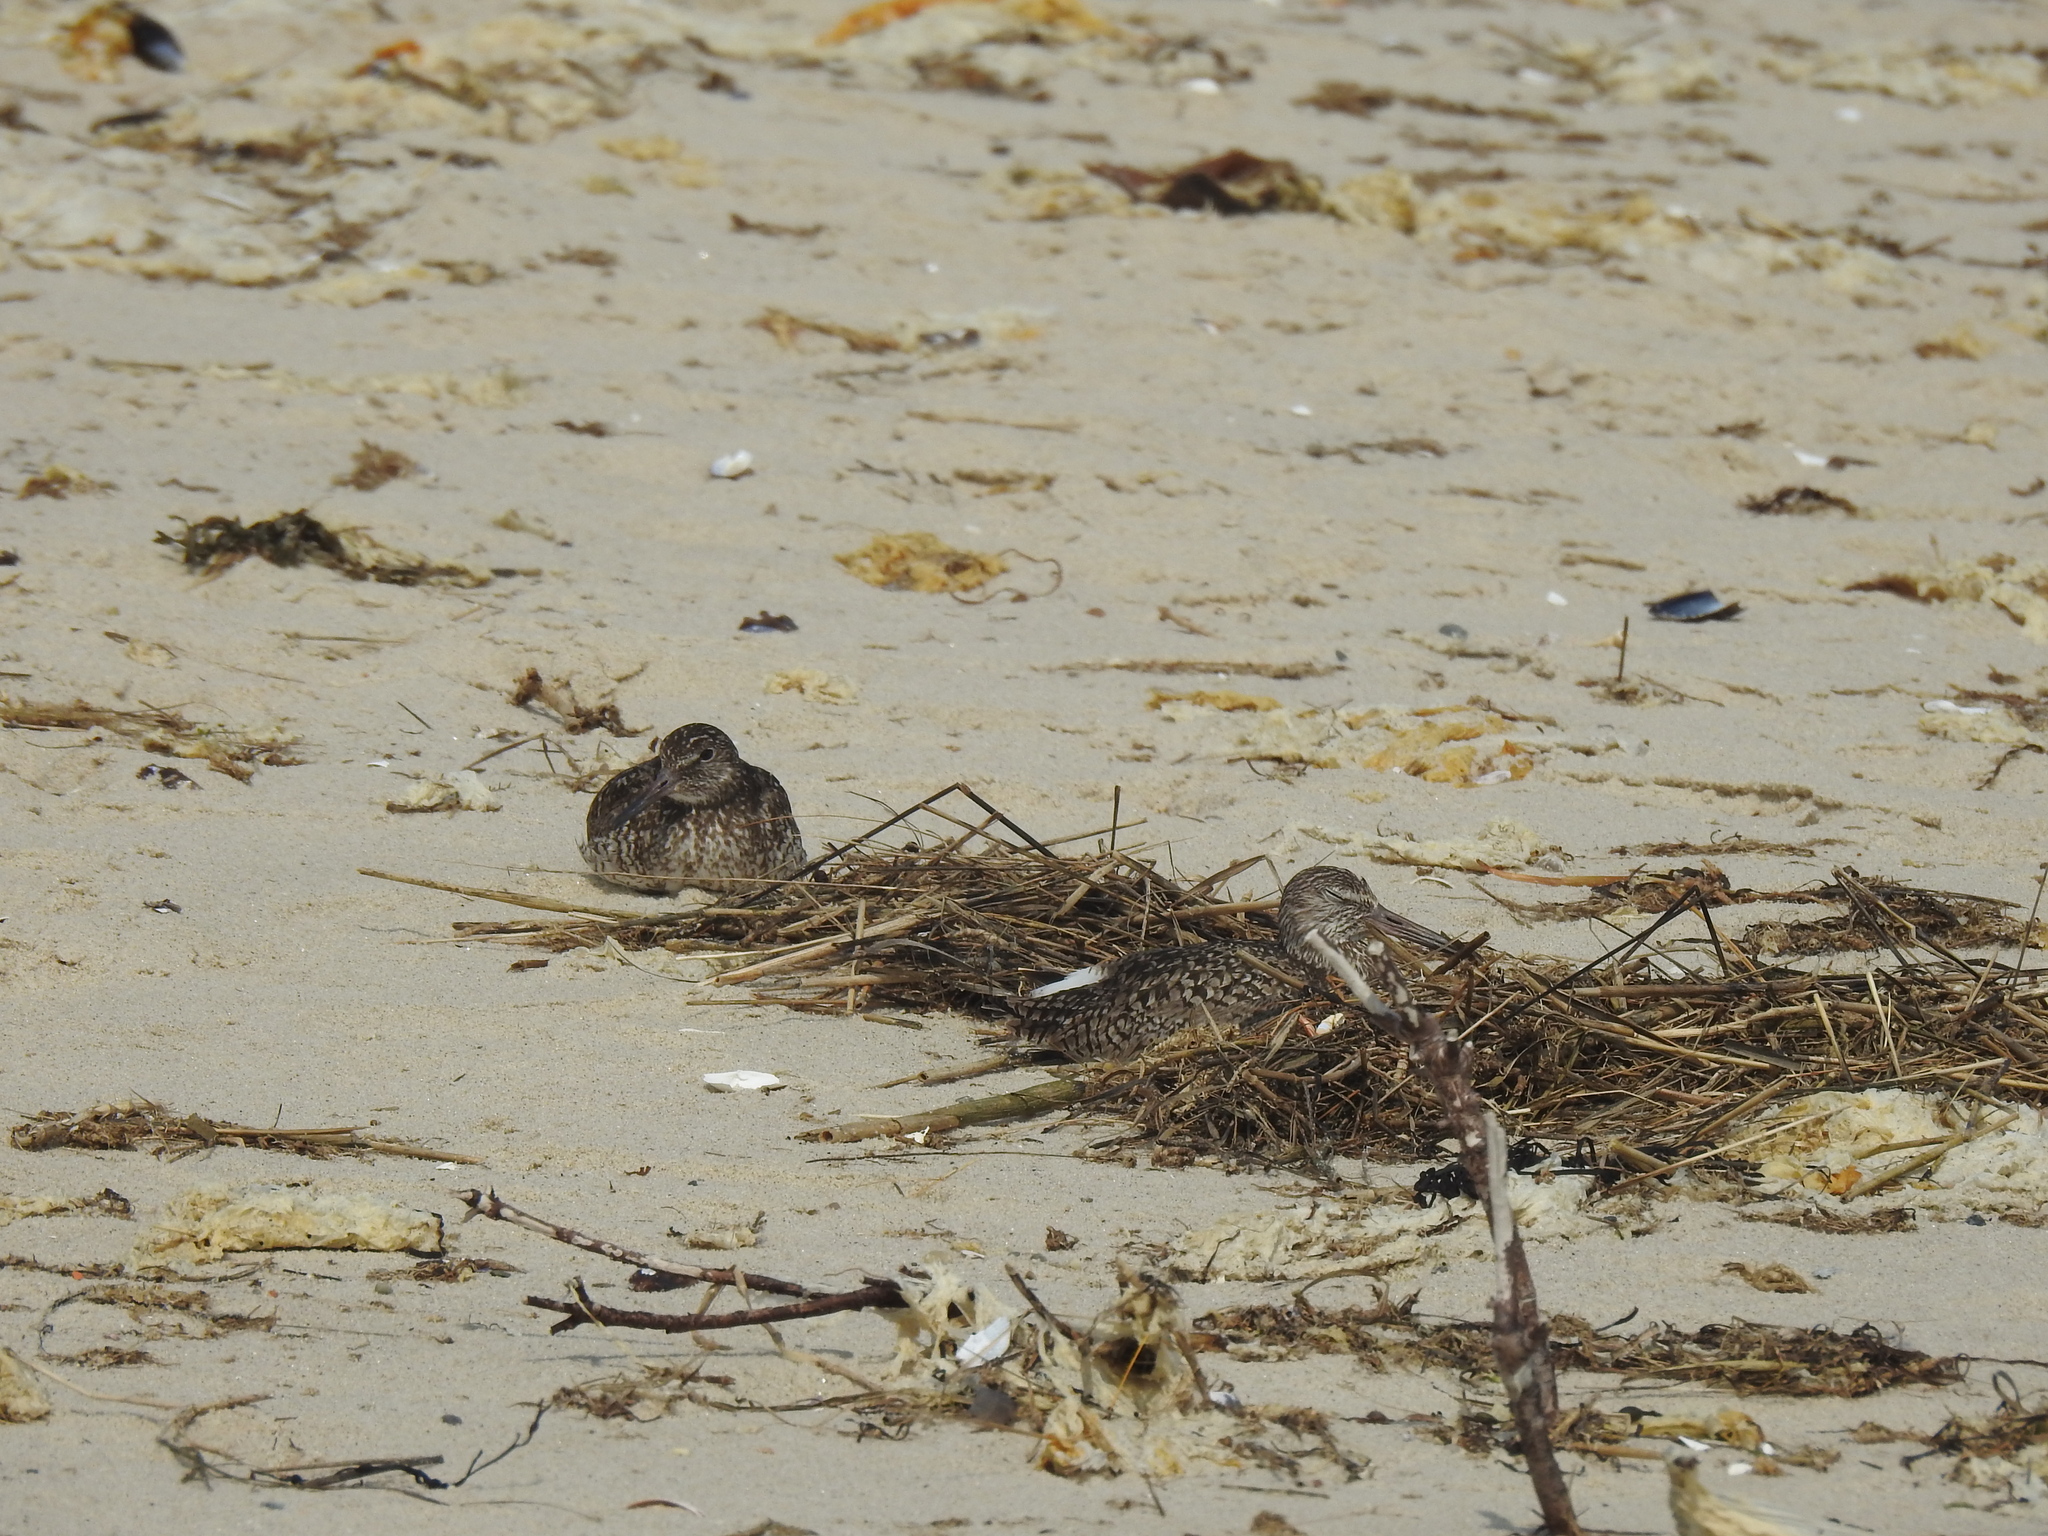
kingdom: Animalia
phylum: Chordata
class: Aves
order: Charadriiformes
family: Scolopacidae
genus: Tringa
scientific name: Tringa semipalmata
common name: Willet
